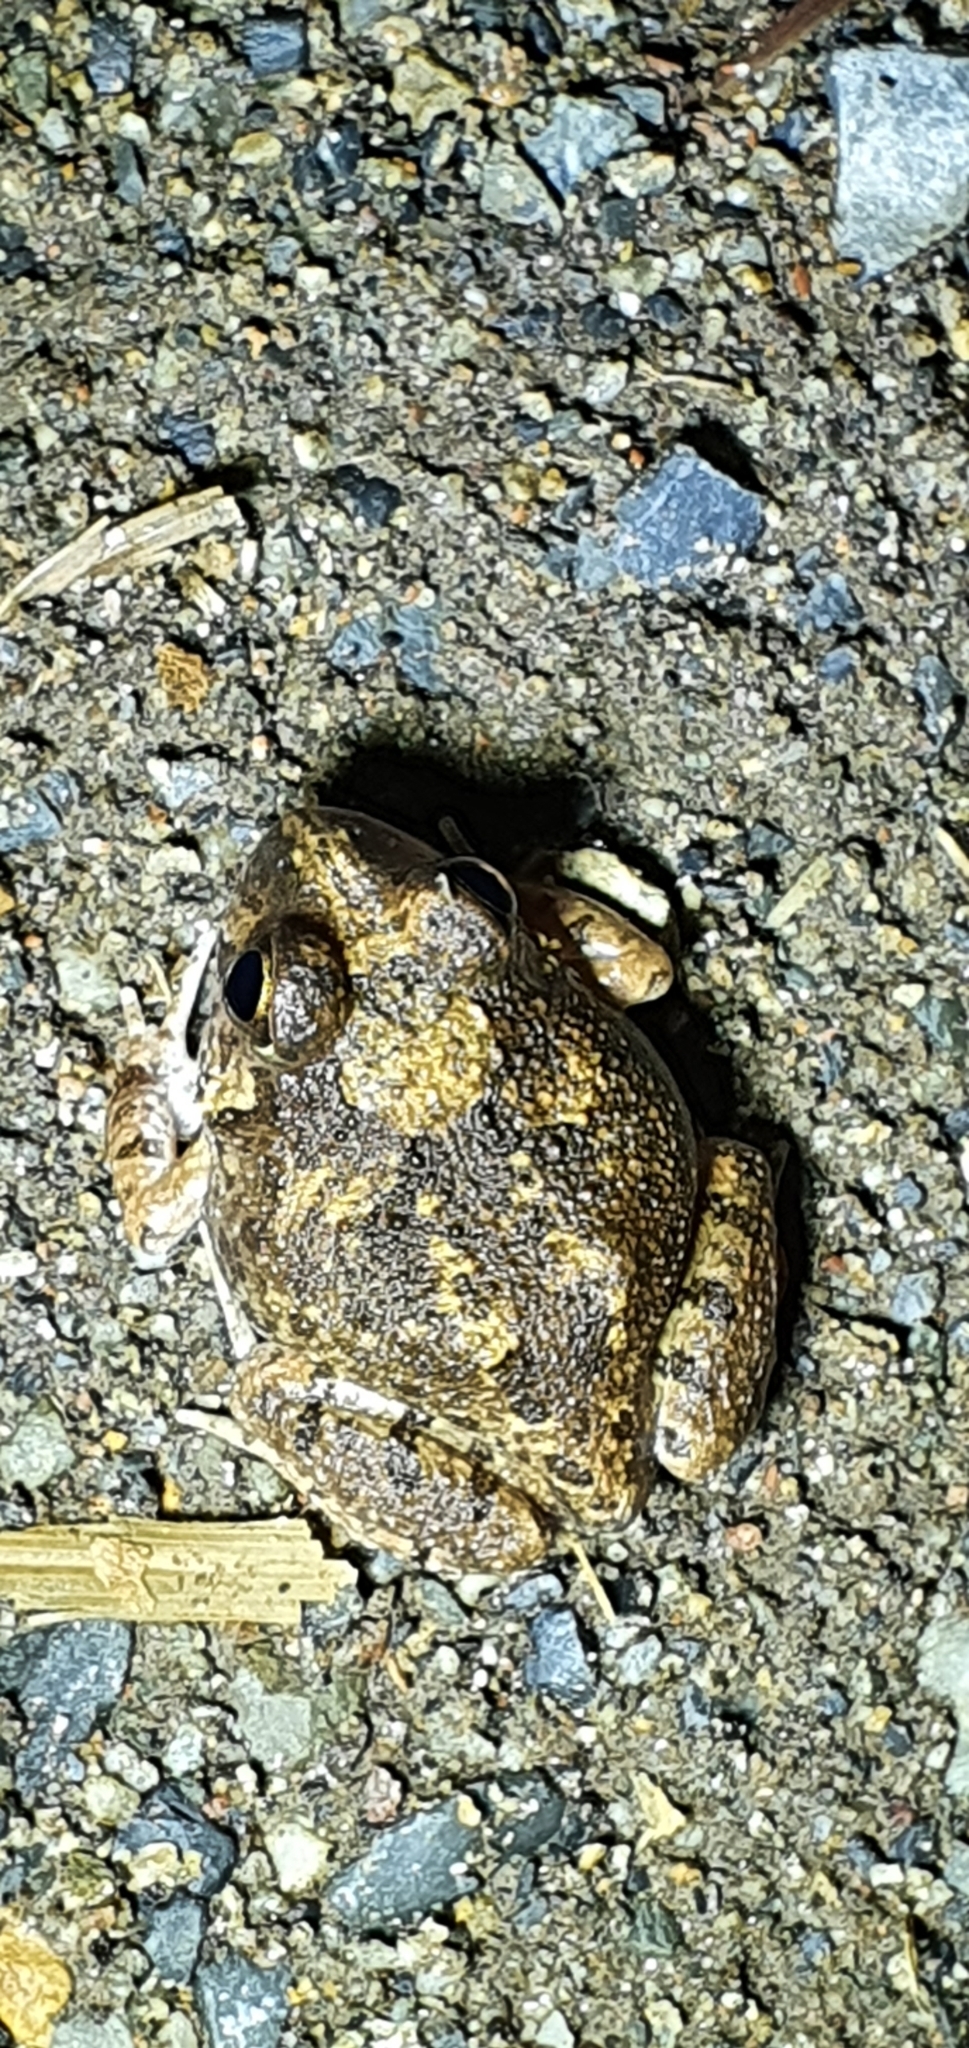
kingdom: Animalia
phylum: Chordata
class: Amphibia
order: Anura
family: Limnodynastidae
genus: Platyplectrum
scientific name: Platyplectrum ornatum
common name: Ornate burrowing frog
